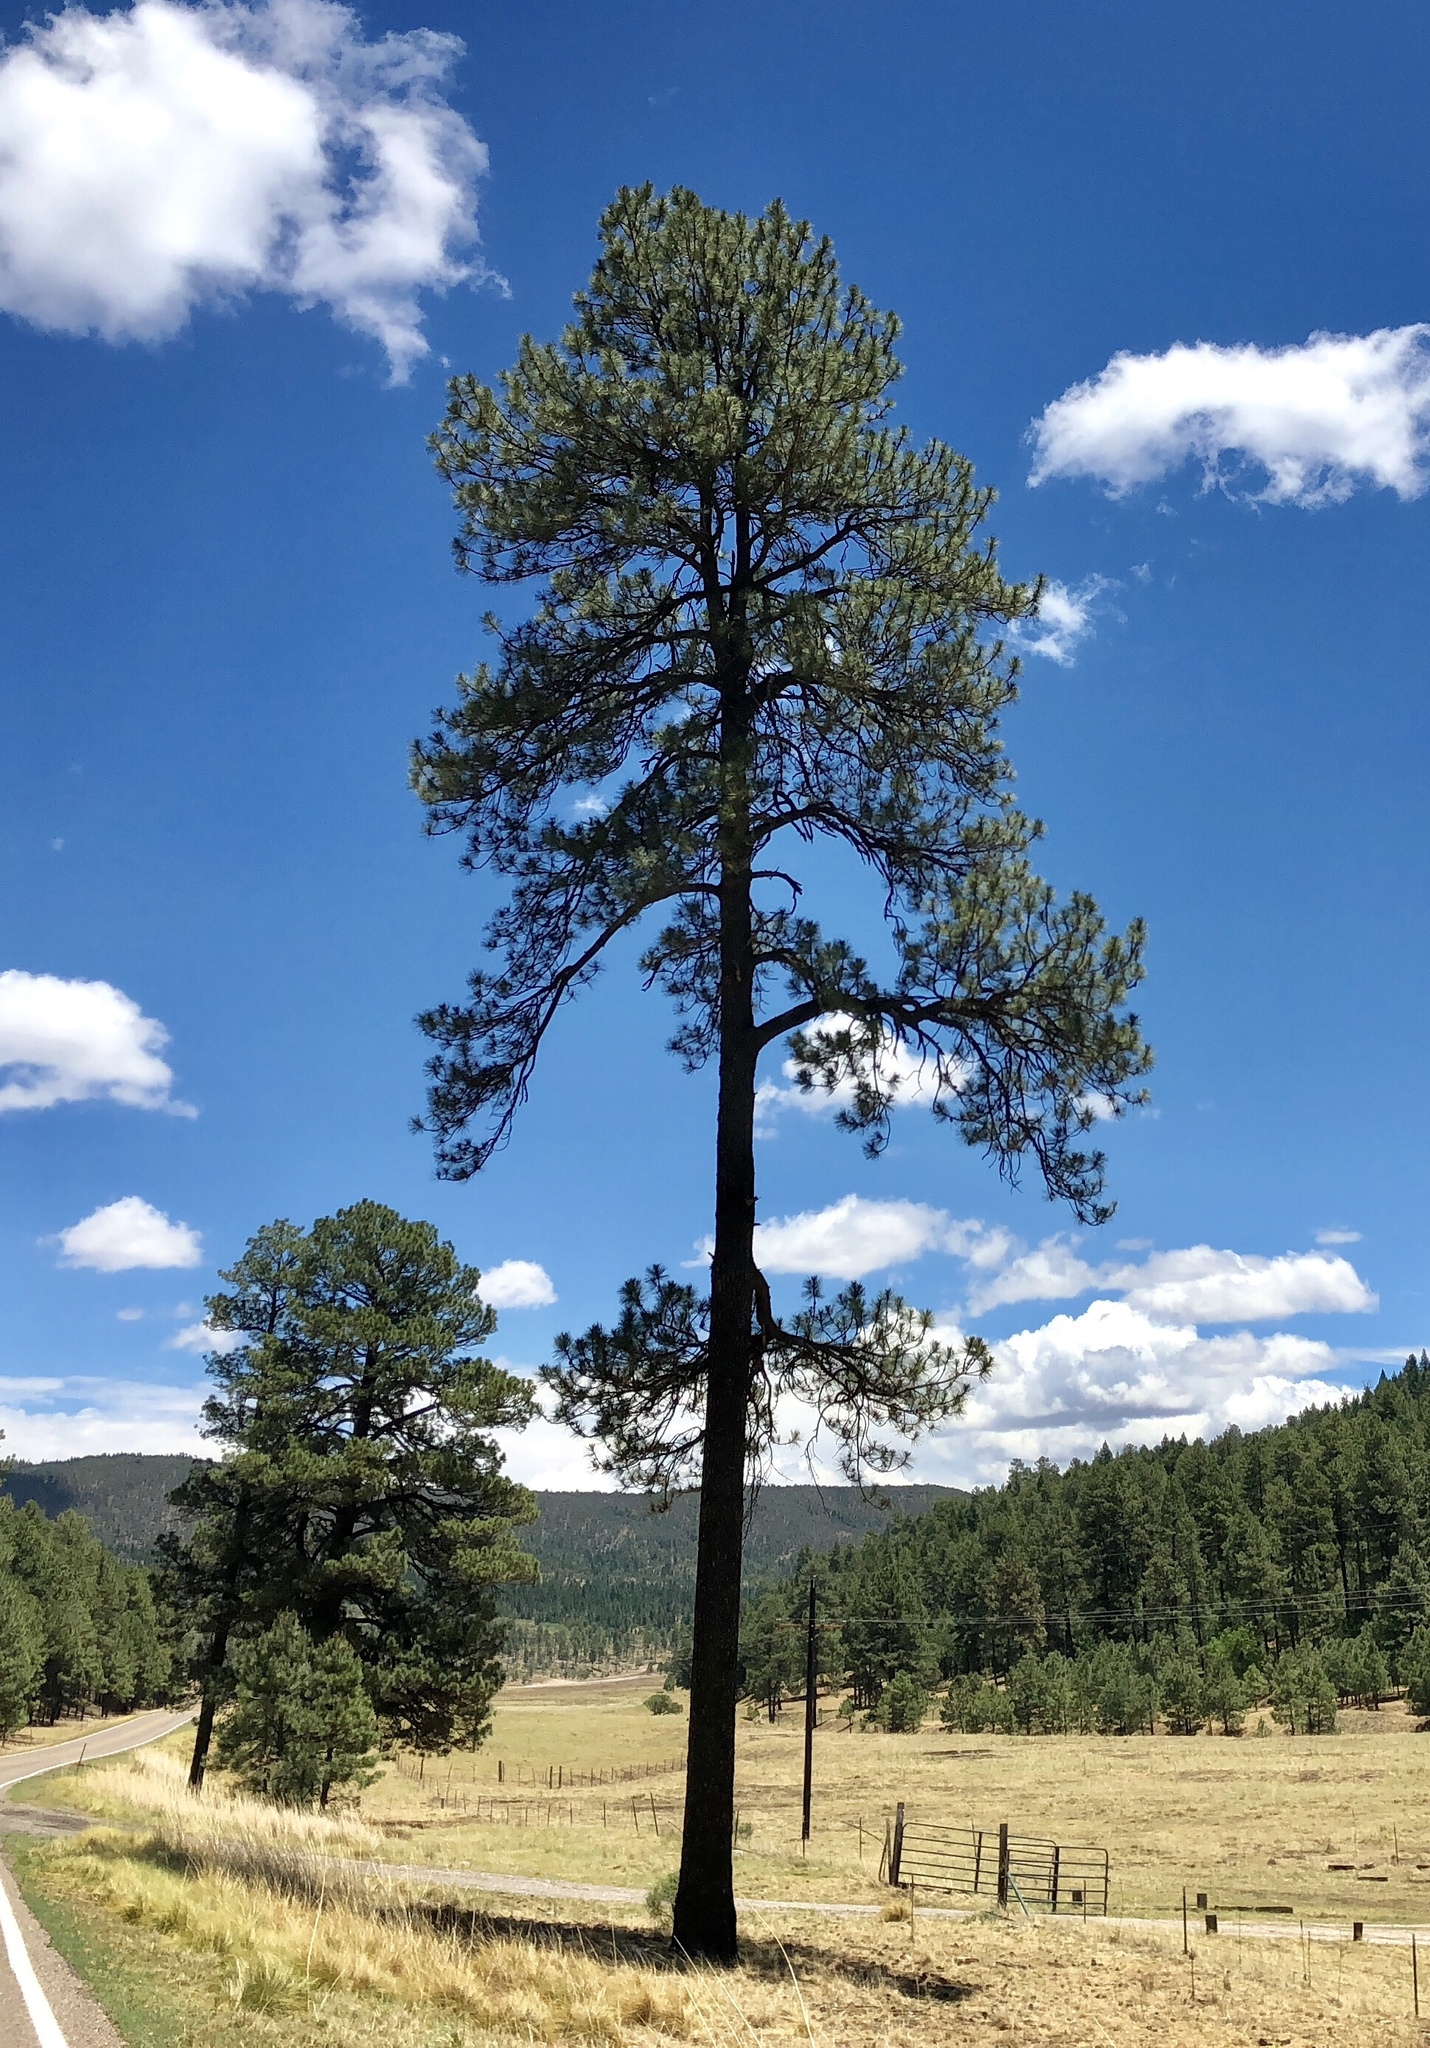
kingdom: Plantae
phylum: Tracheophyta
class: Pinopsida
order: Pinales
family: Pinaceae
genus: Pinus
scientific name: Pinus ponderosa
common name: Western yellow-pine
